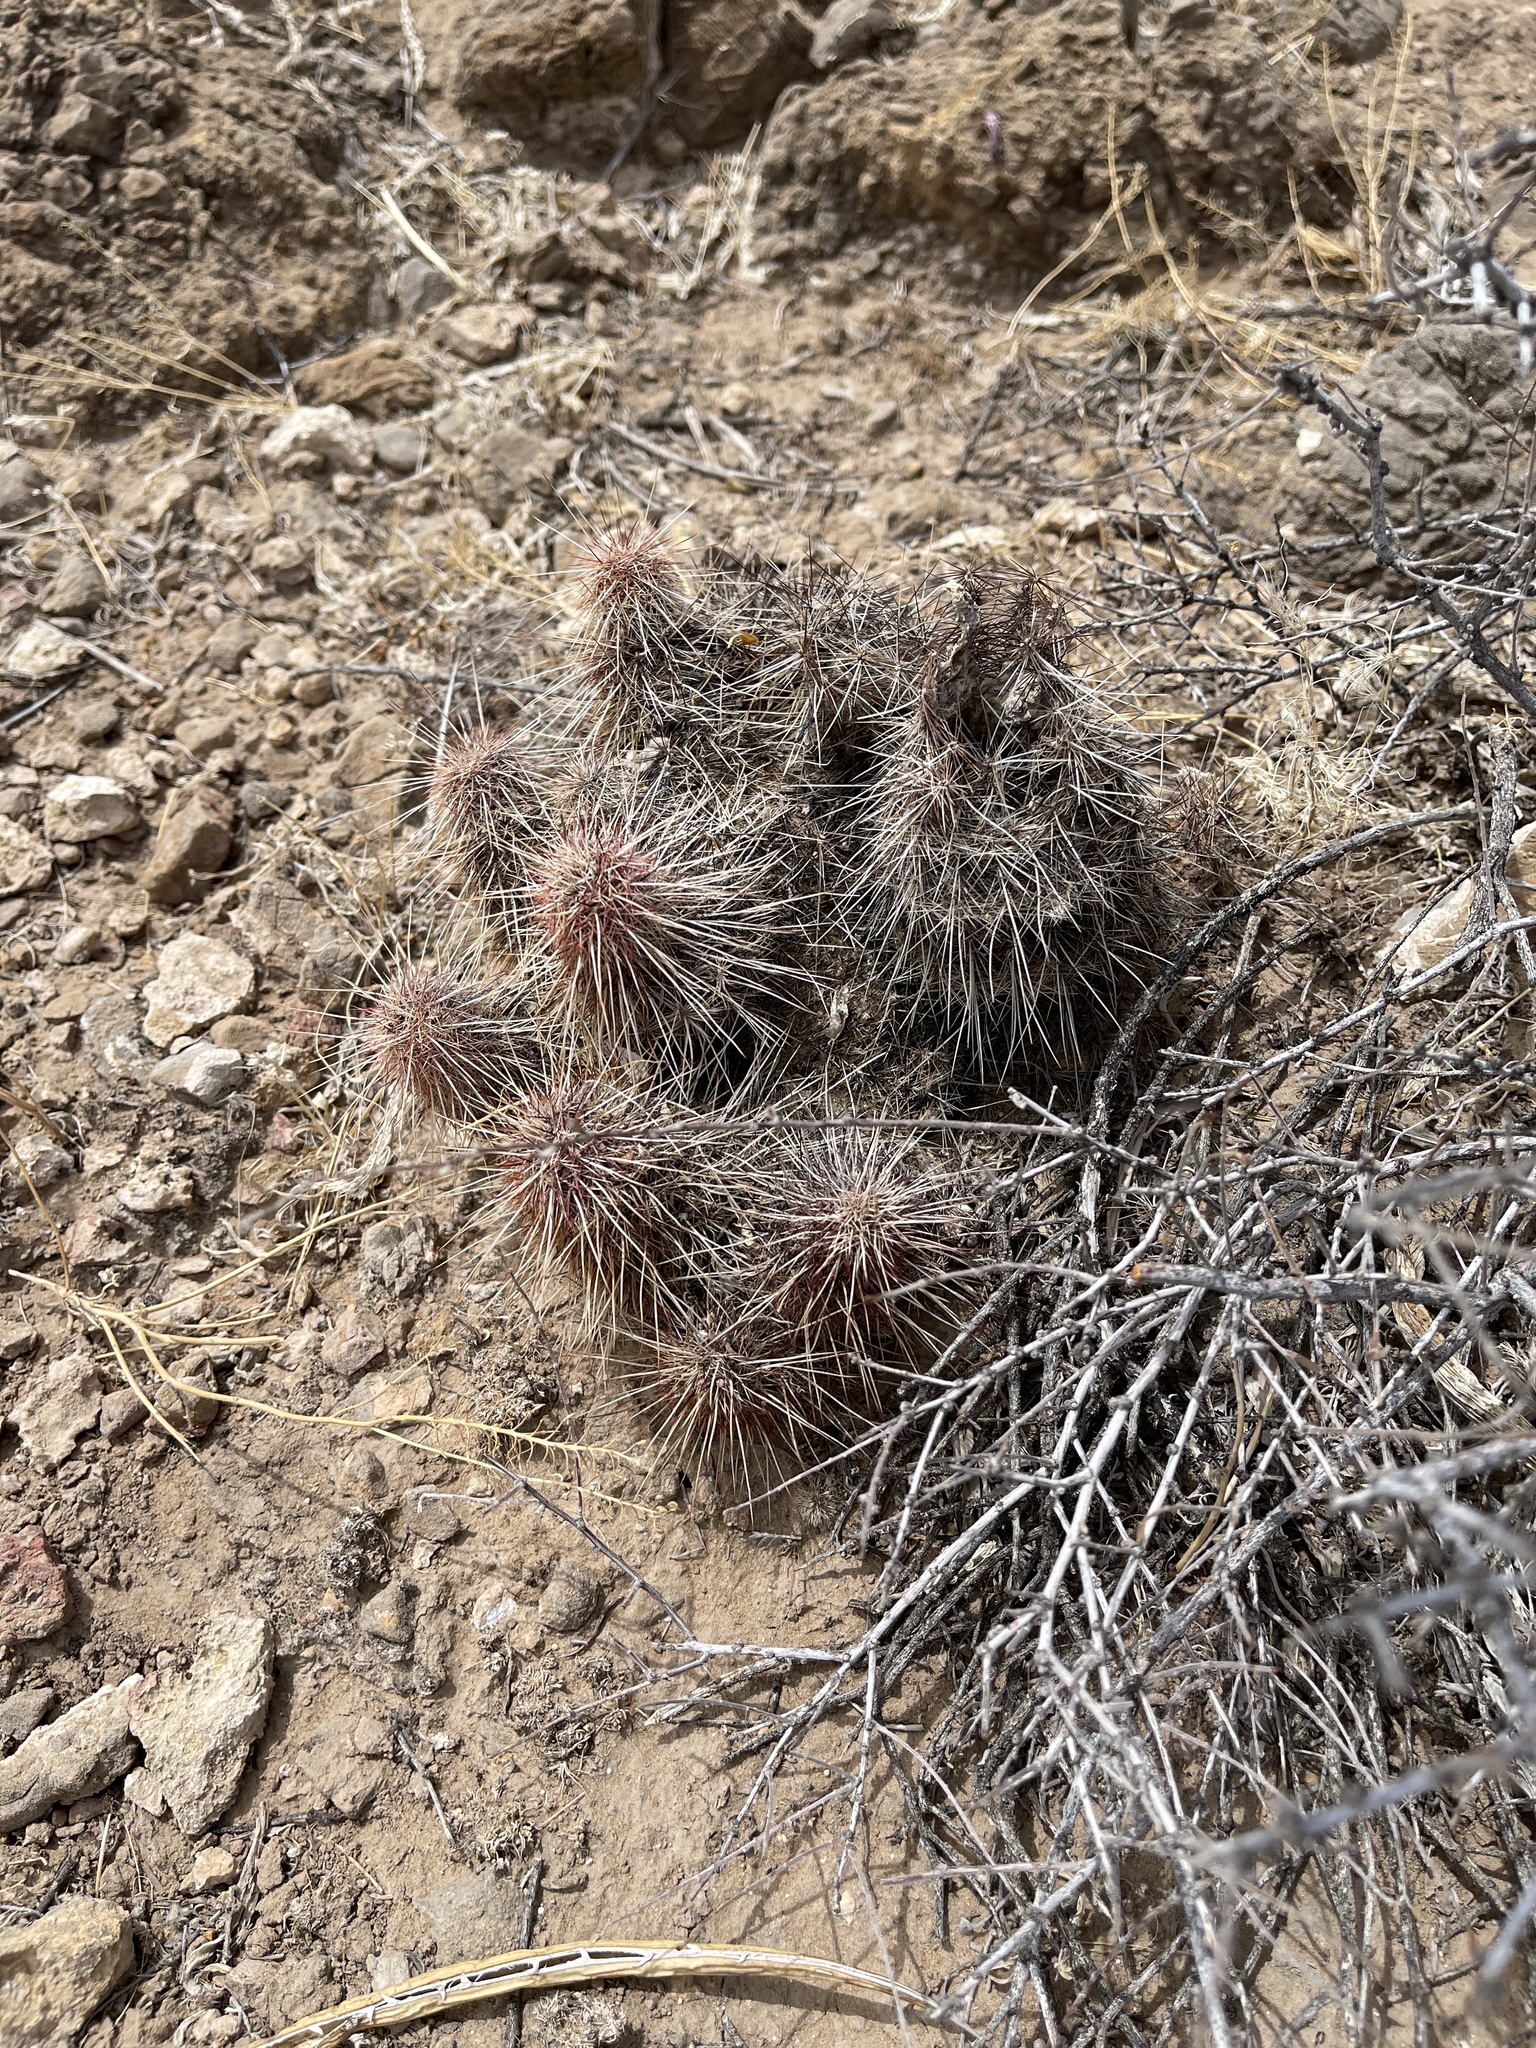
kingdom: Plantae
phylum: Tracheophyta
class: Magnoliopsida
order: Caryophyllales
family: Cactaceae
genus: Echinocereus
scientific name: Echinocereus viridiflorus
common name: Nylon hedgehog cactus
